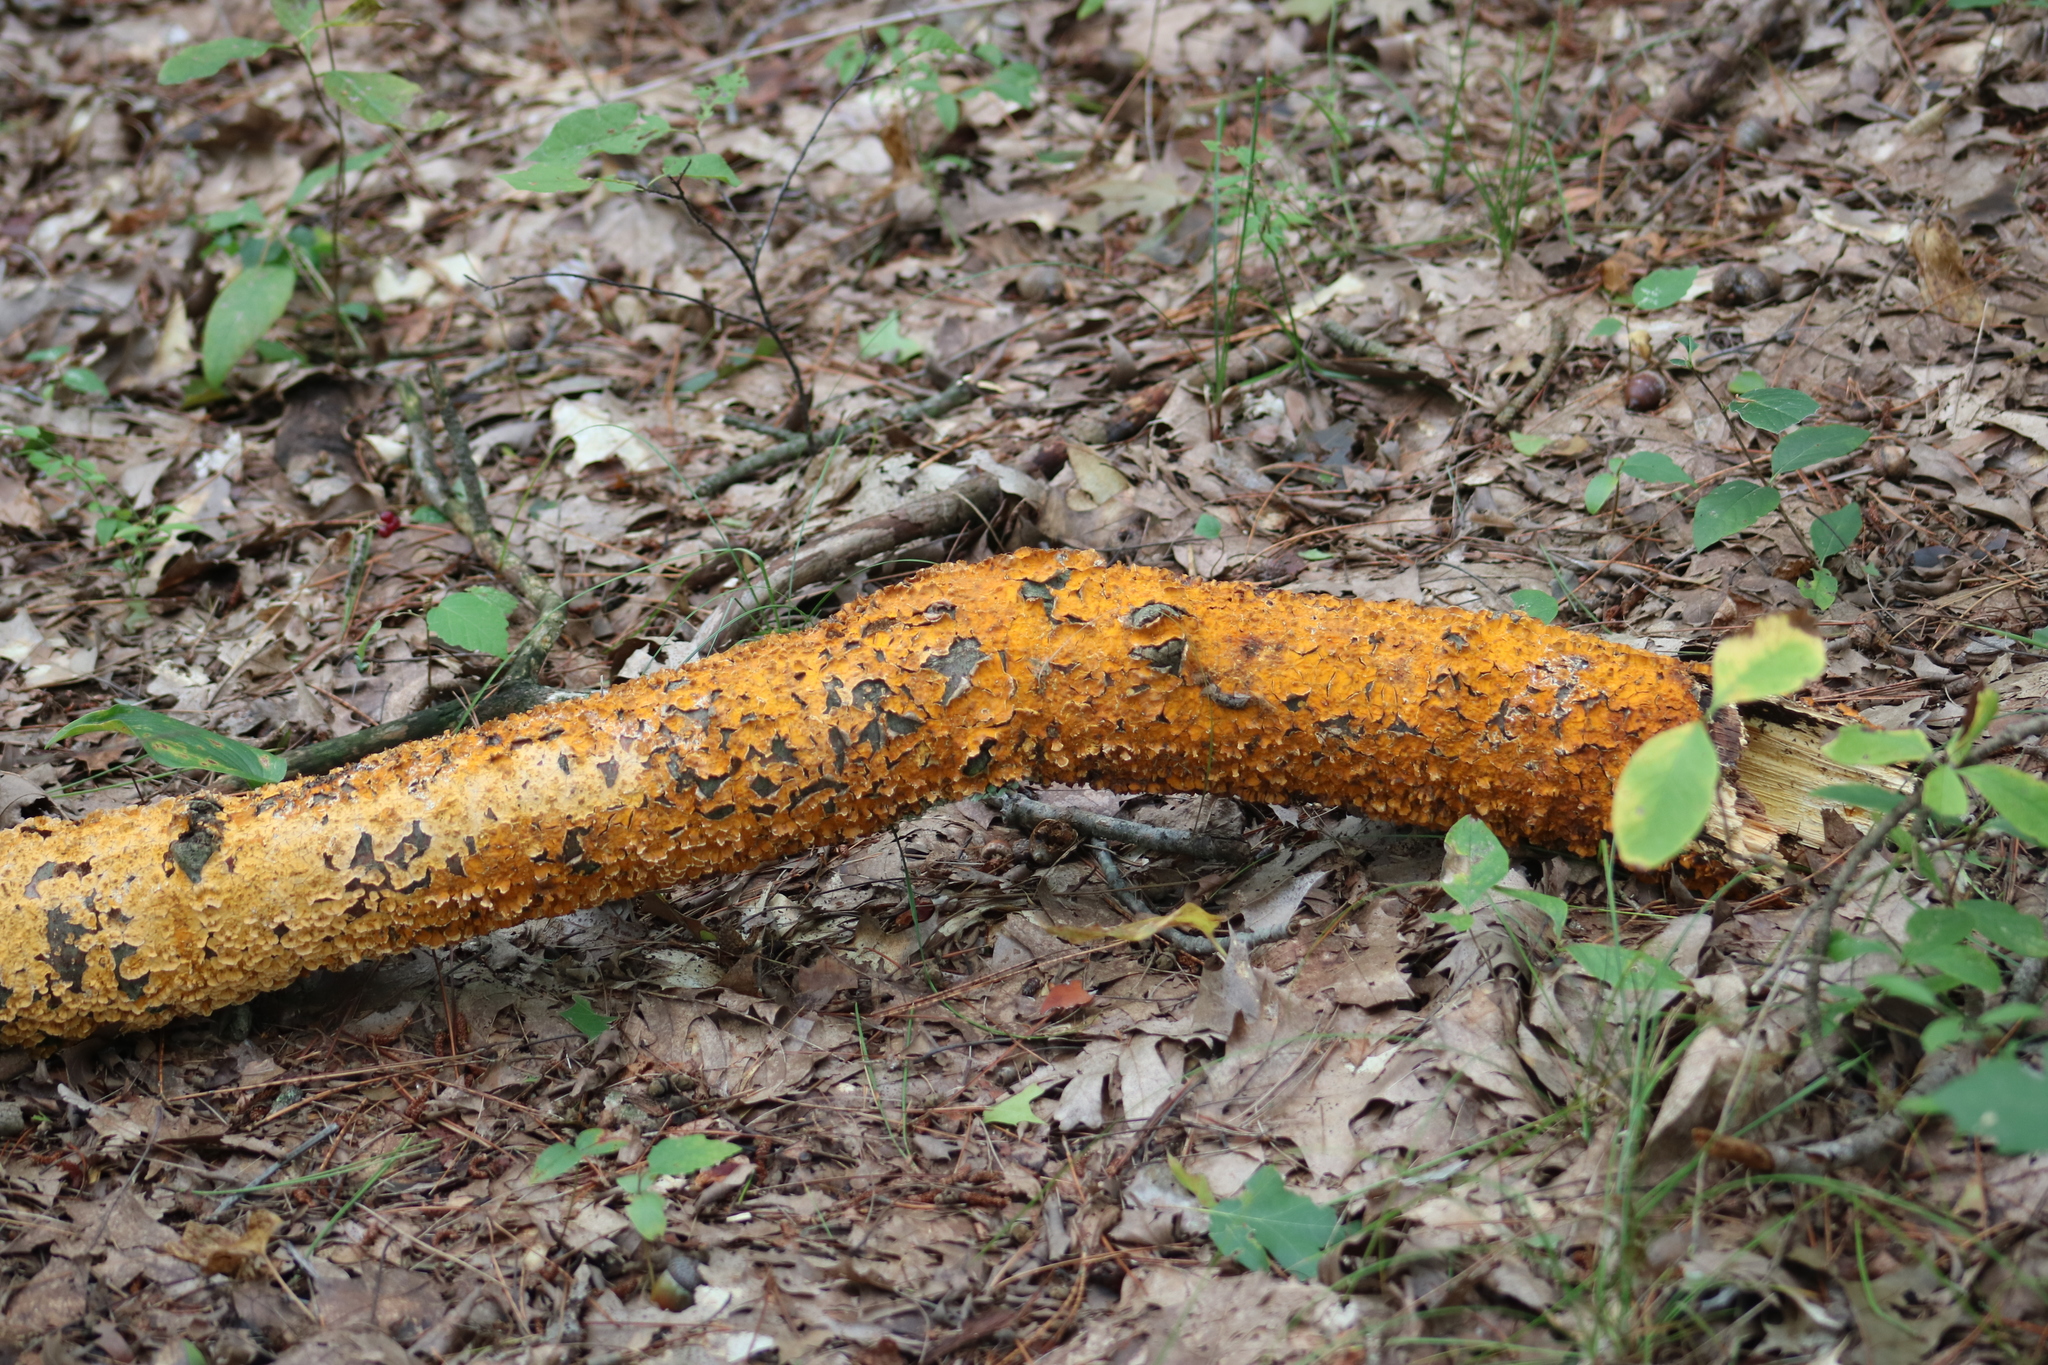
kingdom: Fungi
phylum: Basidiomycota
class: Agaricomycetes
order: Russulales
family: Stereaceae
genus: Stereum
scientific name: Stereum complicatum
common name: Crowded parchment
